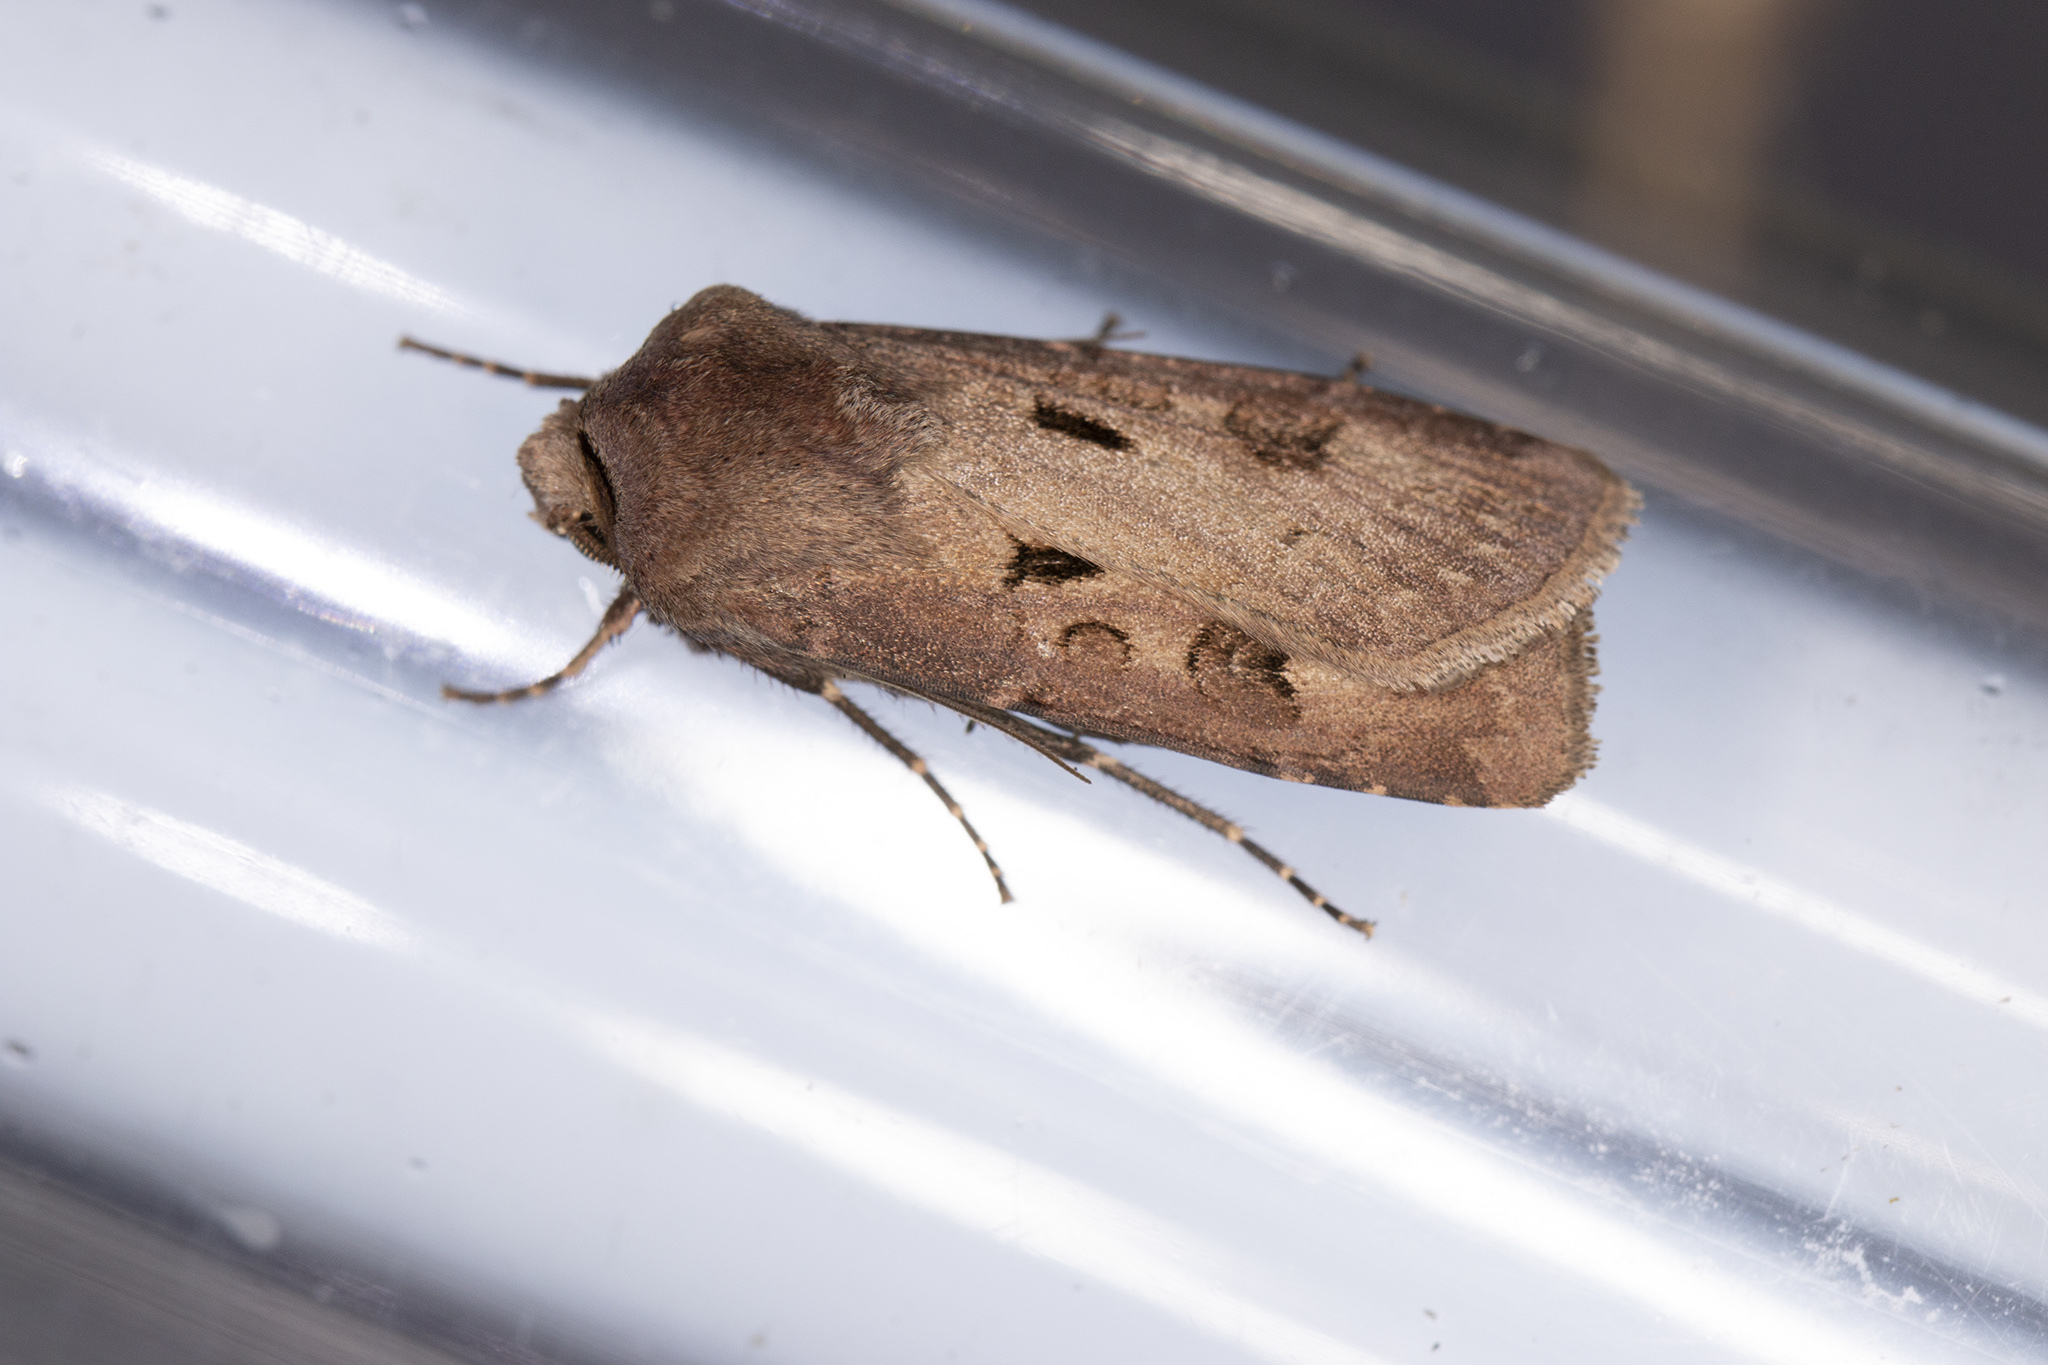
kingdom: Animalia
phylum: Arthropoda
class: Insecta
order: Lepidoptera
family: Noctuidae
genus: Agrotis
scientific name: Agrotis exclamationis
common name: Heart and dart
